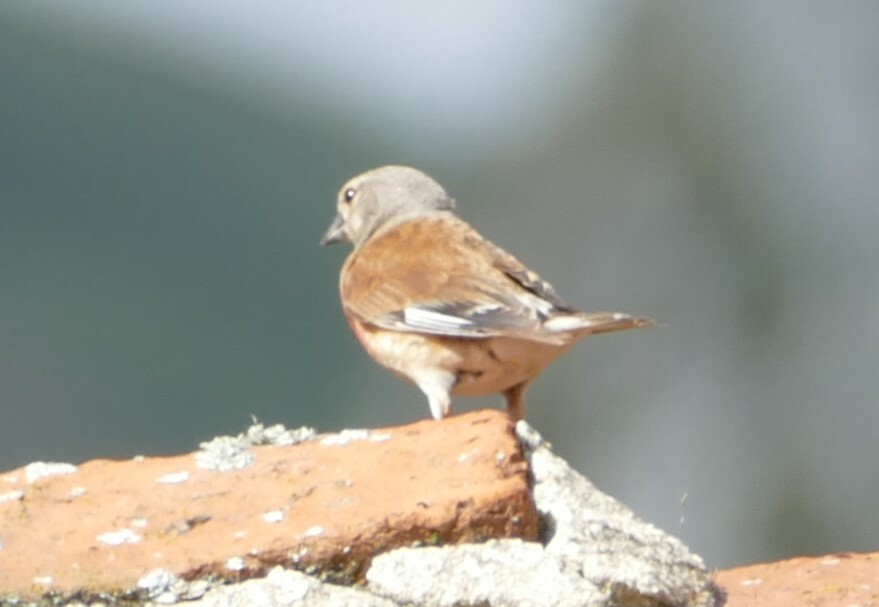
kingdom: Animalia
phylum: Chordata
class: Aves
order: Passeriformes
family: Fringillidae
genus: Linaria
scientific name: Linaria cannabina
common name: Common linnet
